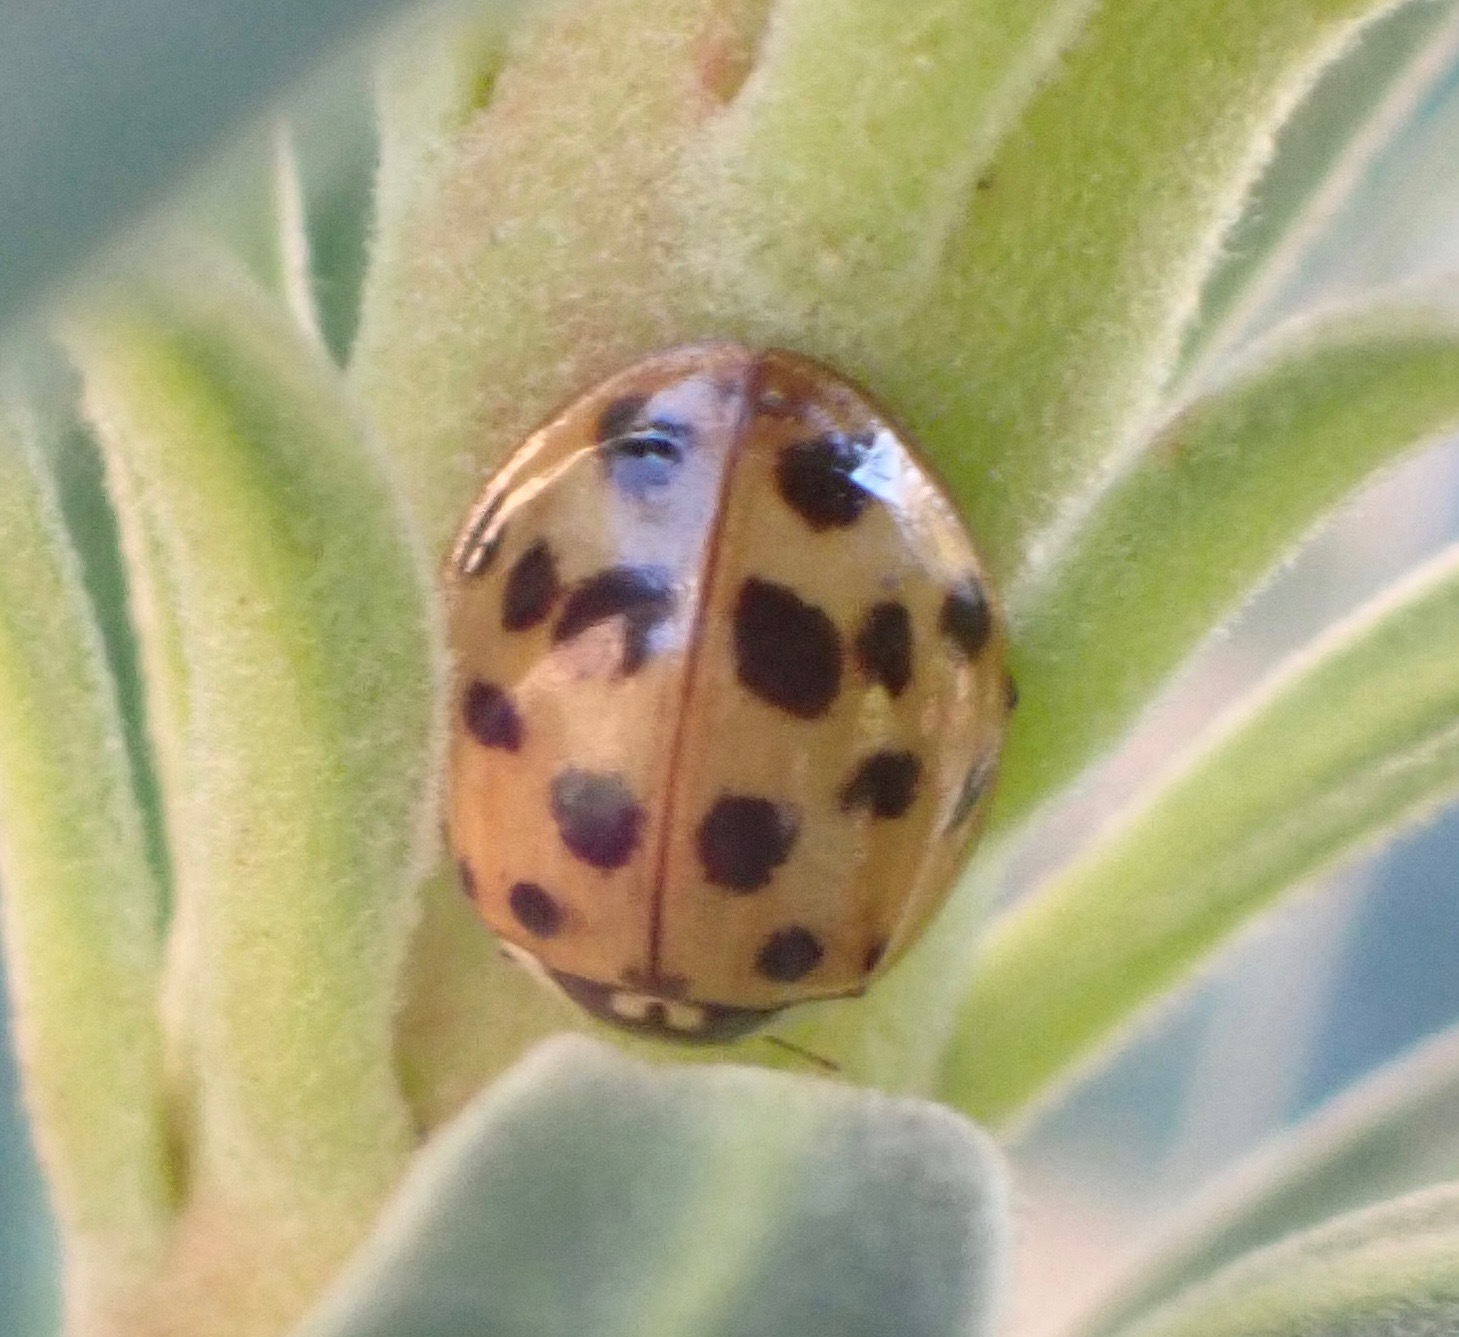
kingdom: Animalia
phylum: Arthropoda
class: Insecta
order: Coleoptera
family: Coccinellidae
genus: Harmonia
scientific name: Harmonia axyridis
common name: Harlequin ladybird
